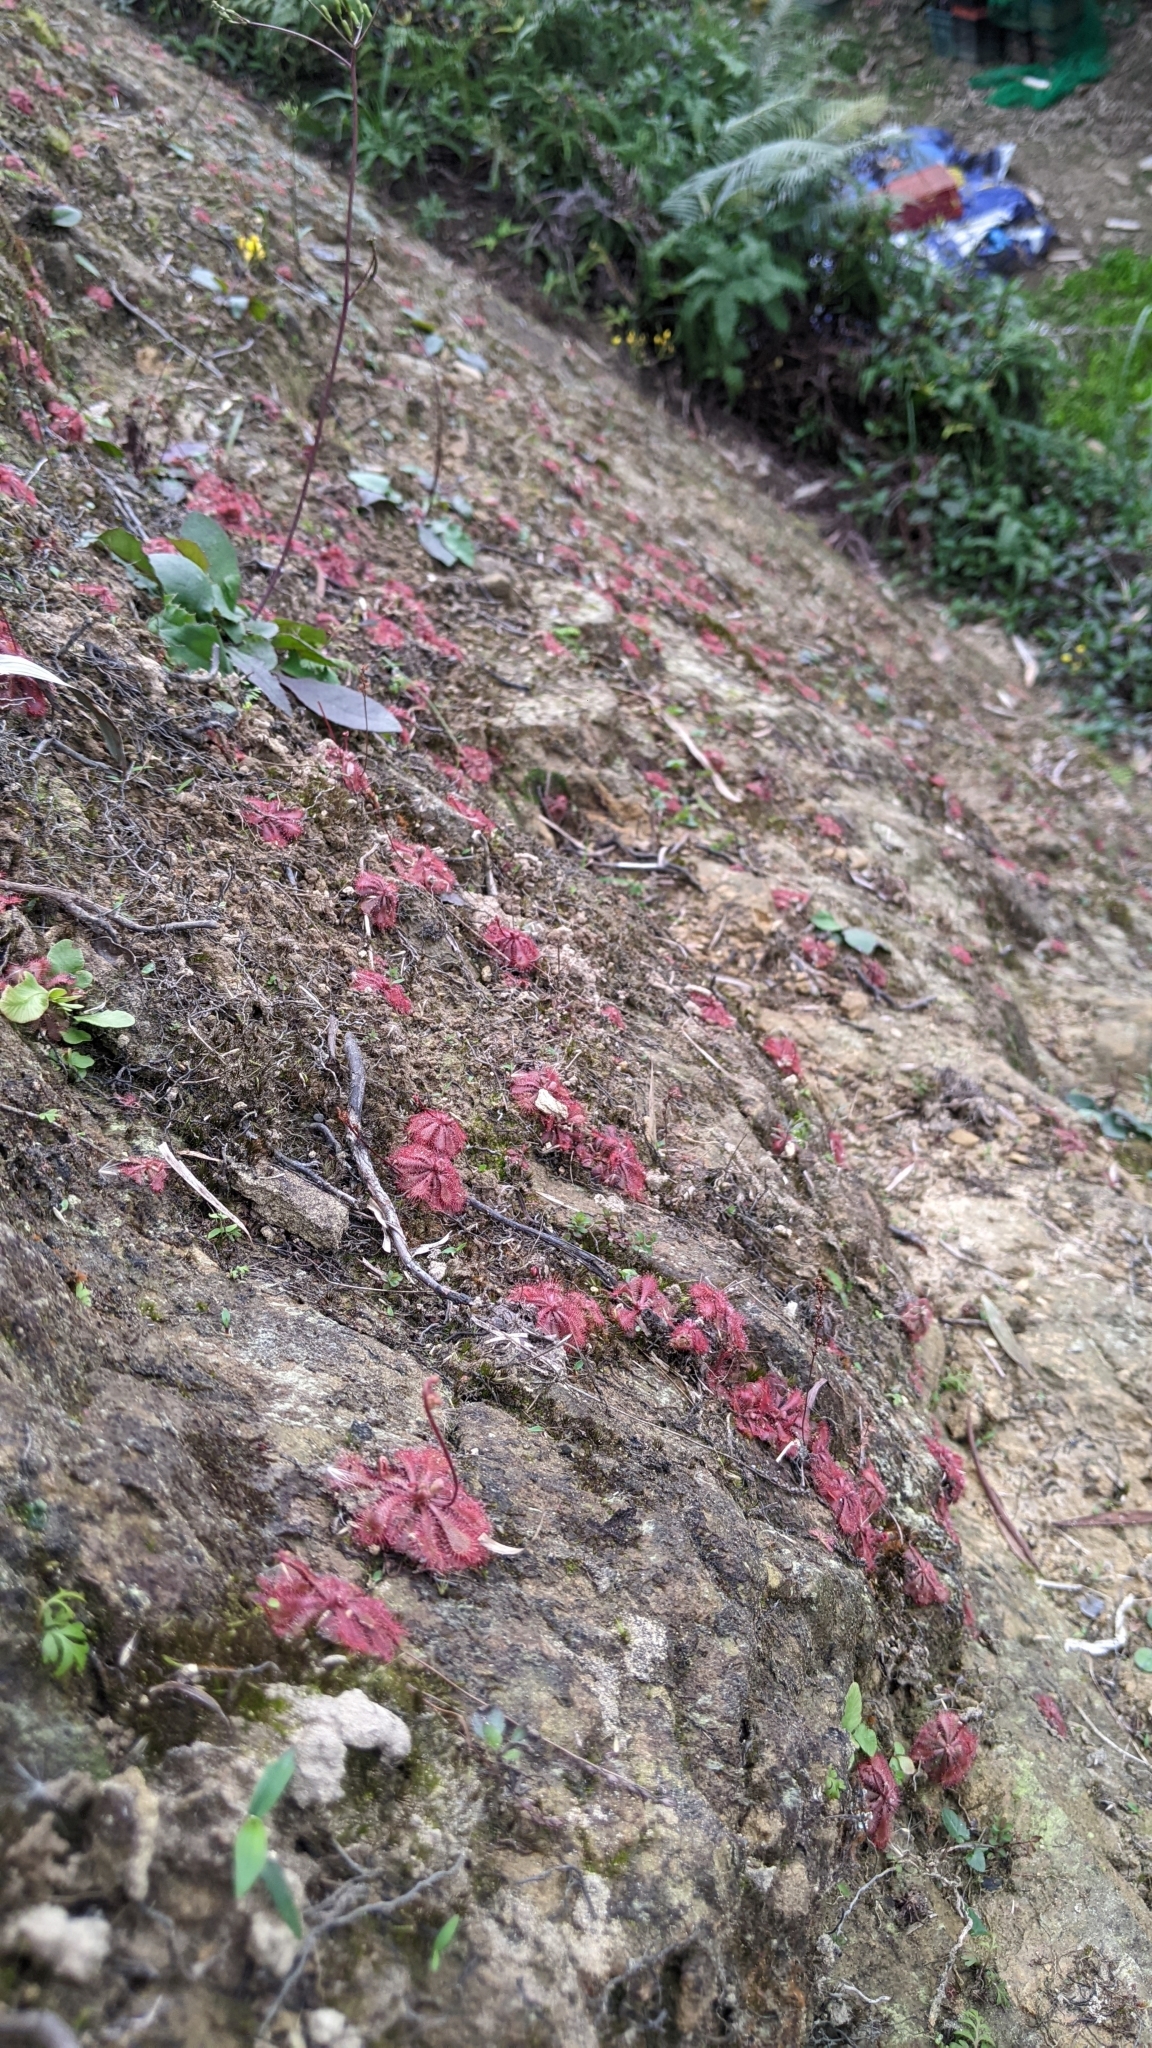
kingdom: Plantae
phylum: Tracheophyta
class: Magnoliopsida
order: Caryophyllales
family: Droseraceae
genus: Drosera
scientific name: Drosera spatulata
